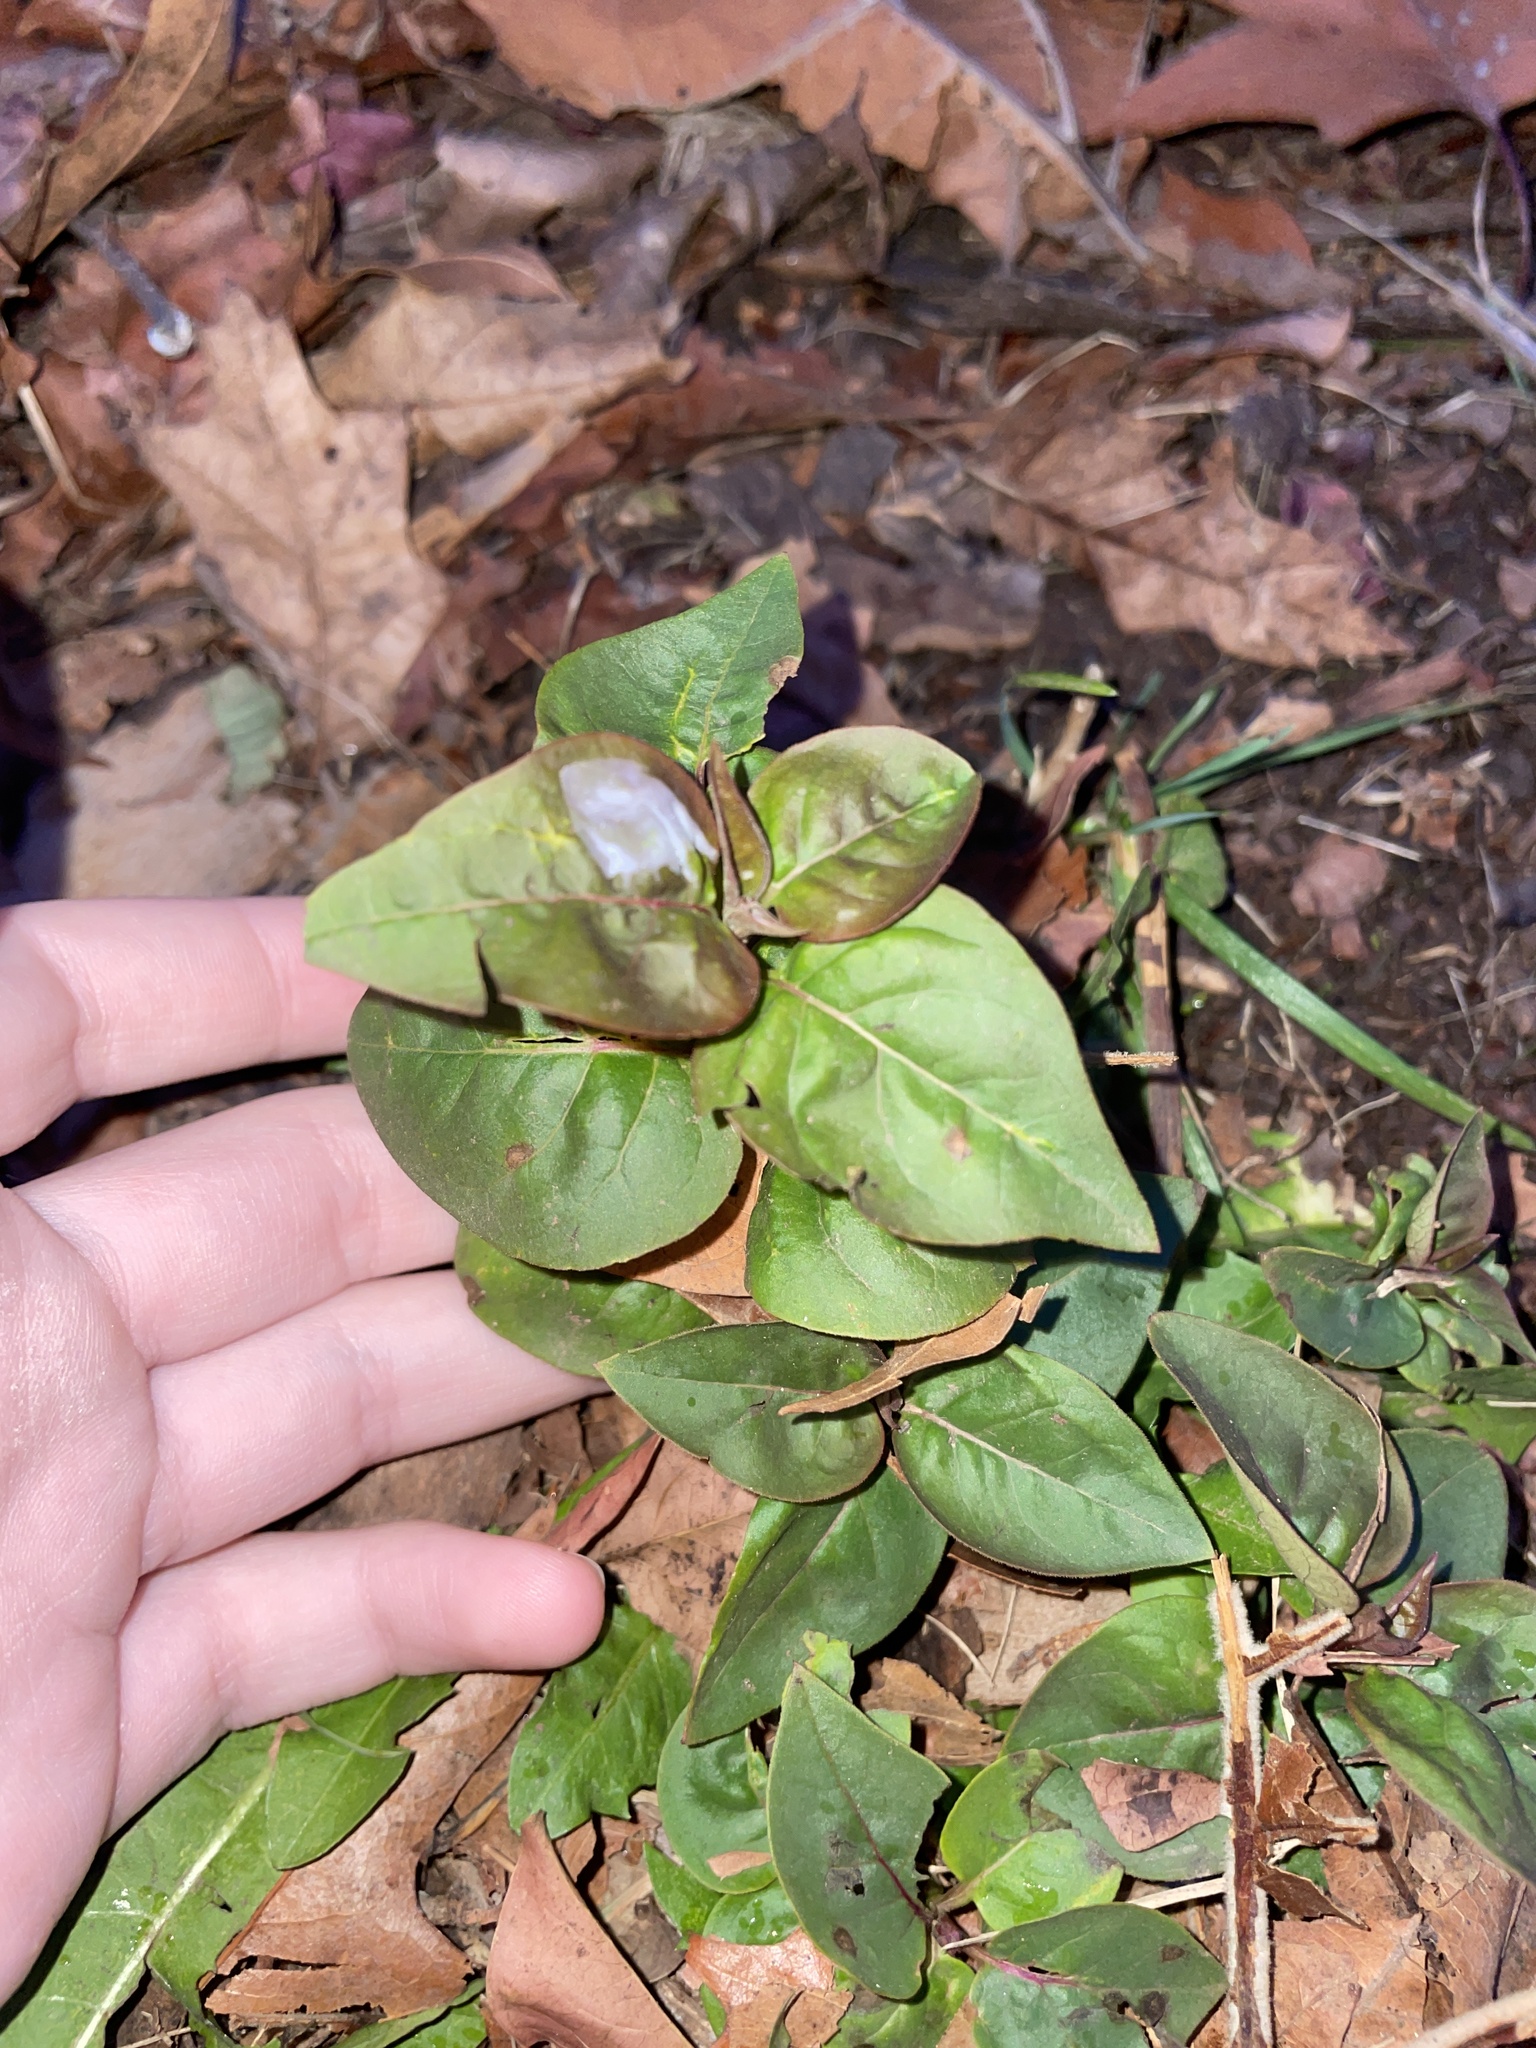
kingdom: Plantae
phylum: Tracheophyta
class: Magnoliopsida
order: Lamiales
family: Oleaceae
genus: Syringa
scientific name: Syringa vulgaris
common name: Common lilac
